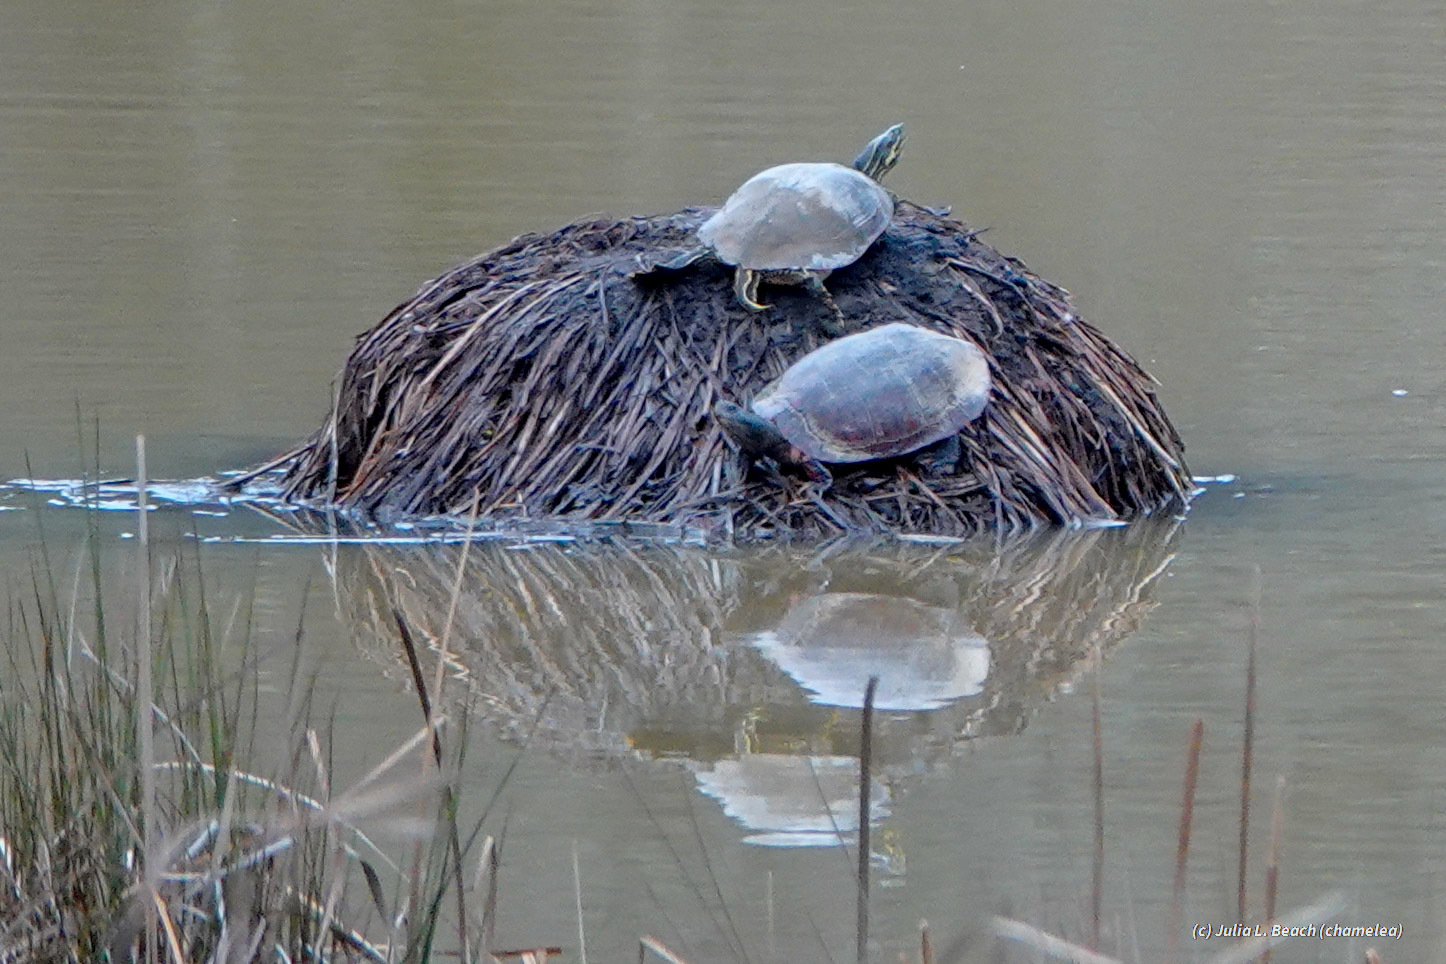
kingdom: Animalia
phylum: Chordata
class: Testudines
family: Emydidae
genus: Pseudemys
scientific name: Pseudemys concinna
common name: Eastern river cooter
